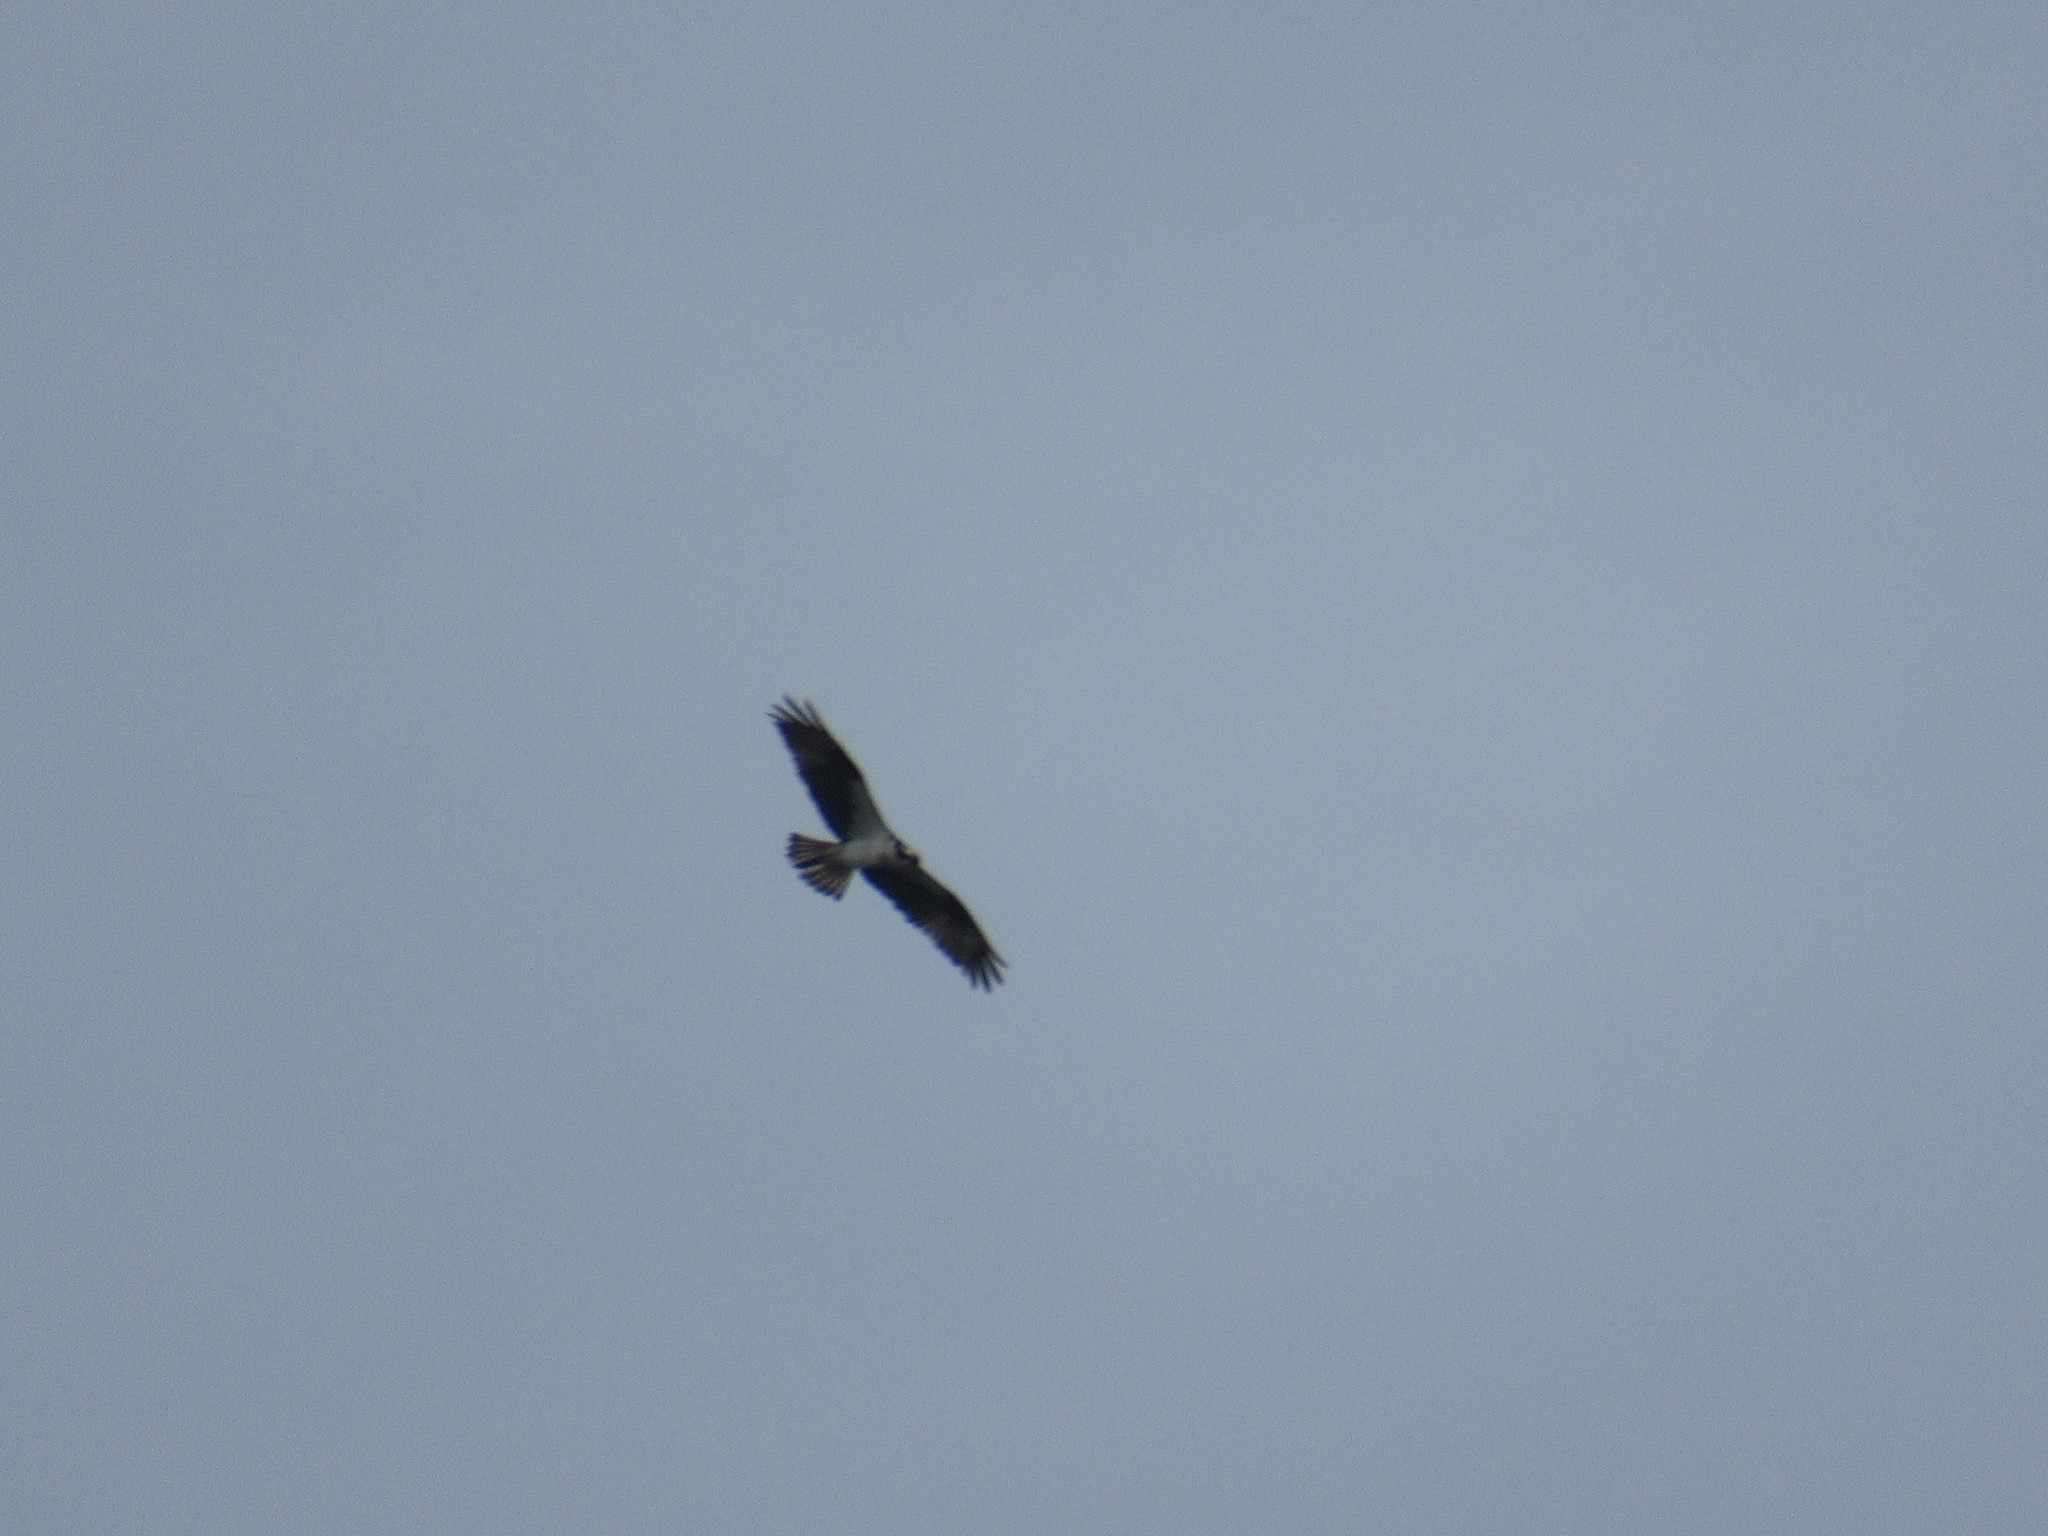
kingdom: Animalia
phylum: Chordata
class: Aves
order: Accipitriformes
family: Pandionidae
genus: Pandion
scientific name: Pandion haliaetus
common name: Osprey
